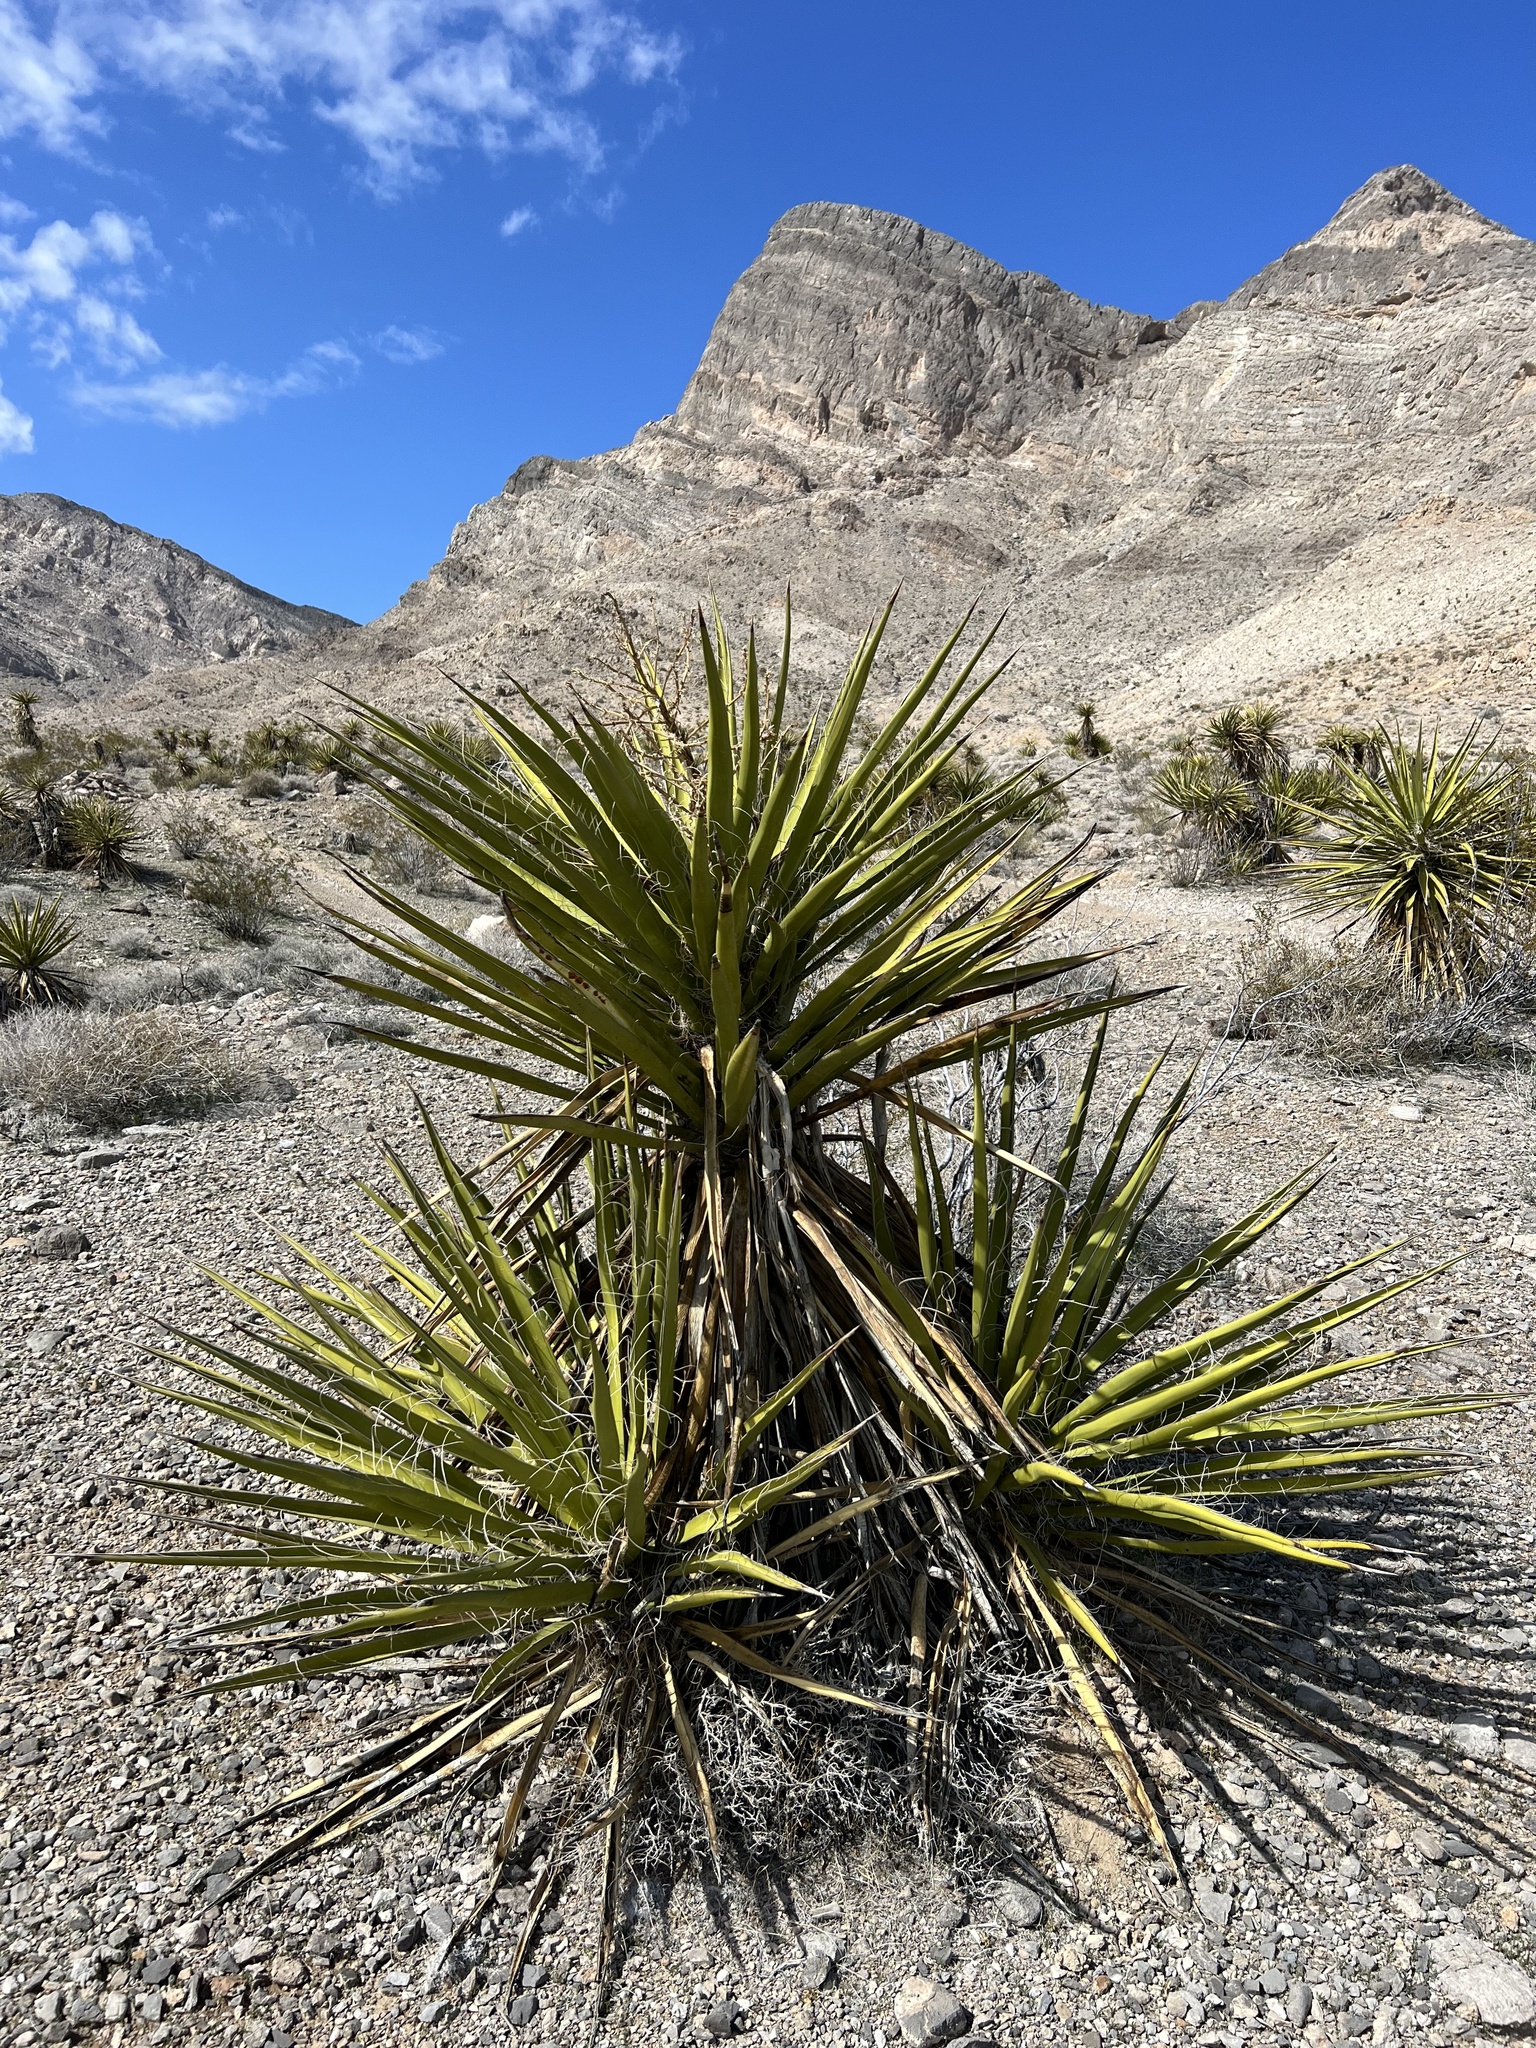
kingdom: Plantae
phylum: Tracheophyta
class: Liliopsida
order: Asparagales
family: Asparagaceae
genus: Yucca
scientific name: Yucca schidigera
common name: Mojave yucca
